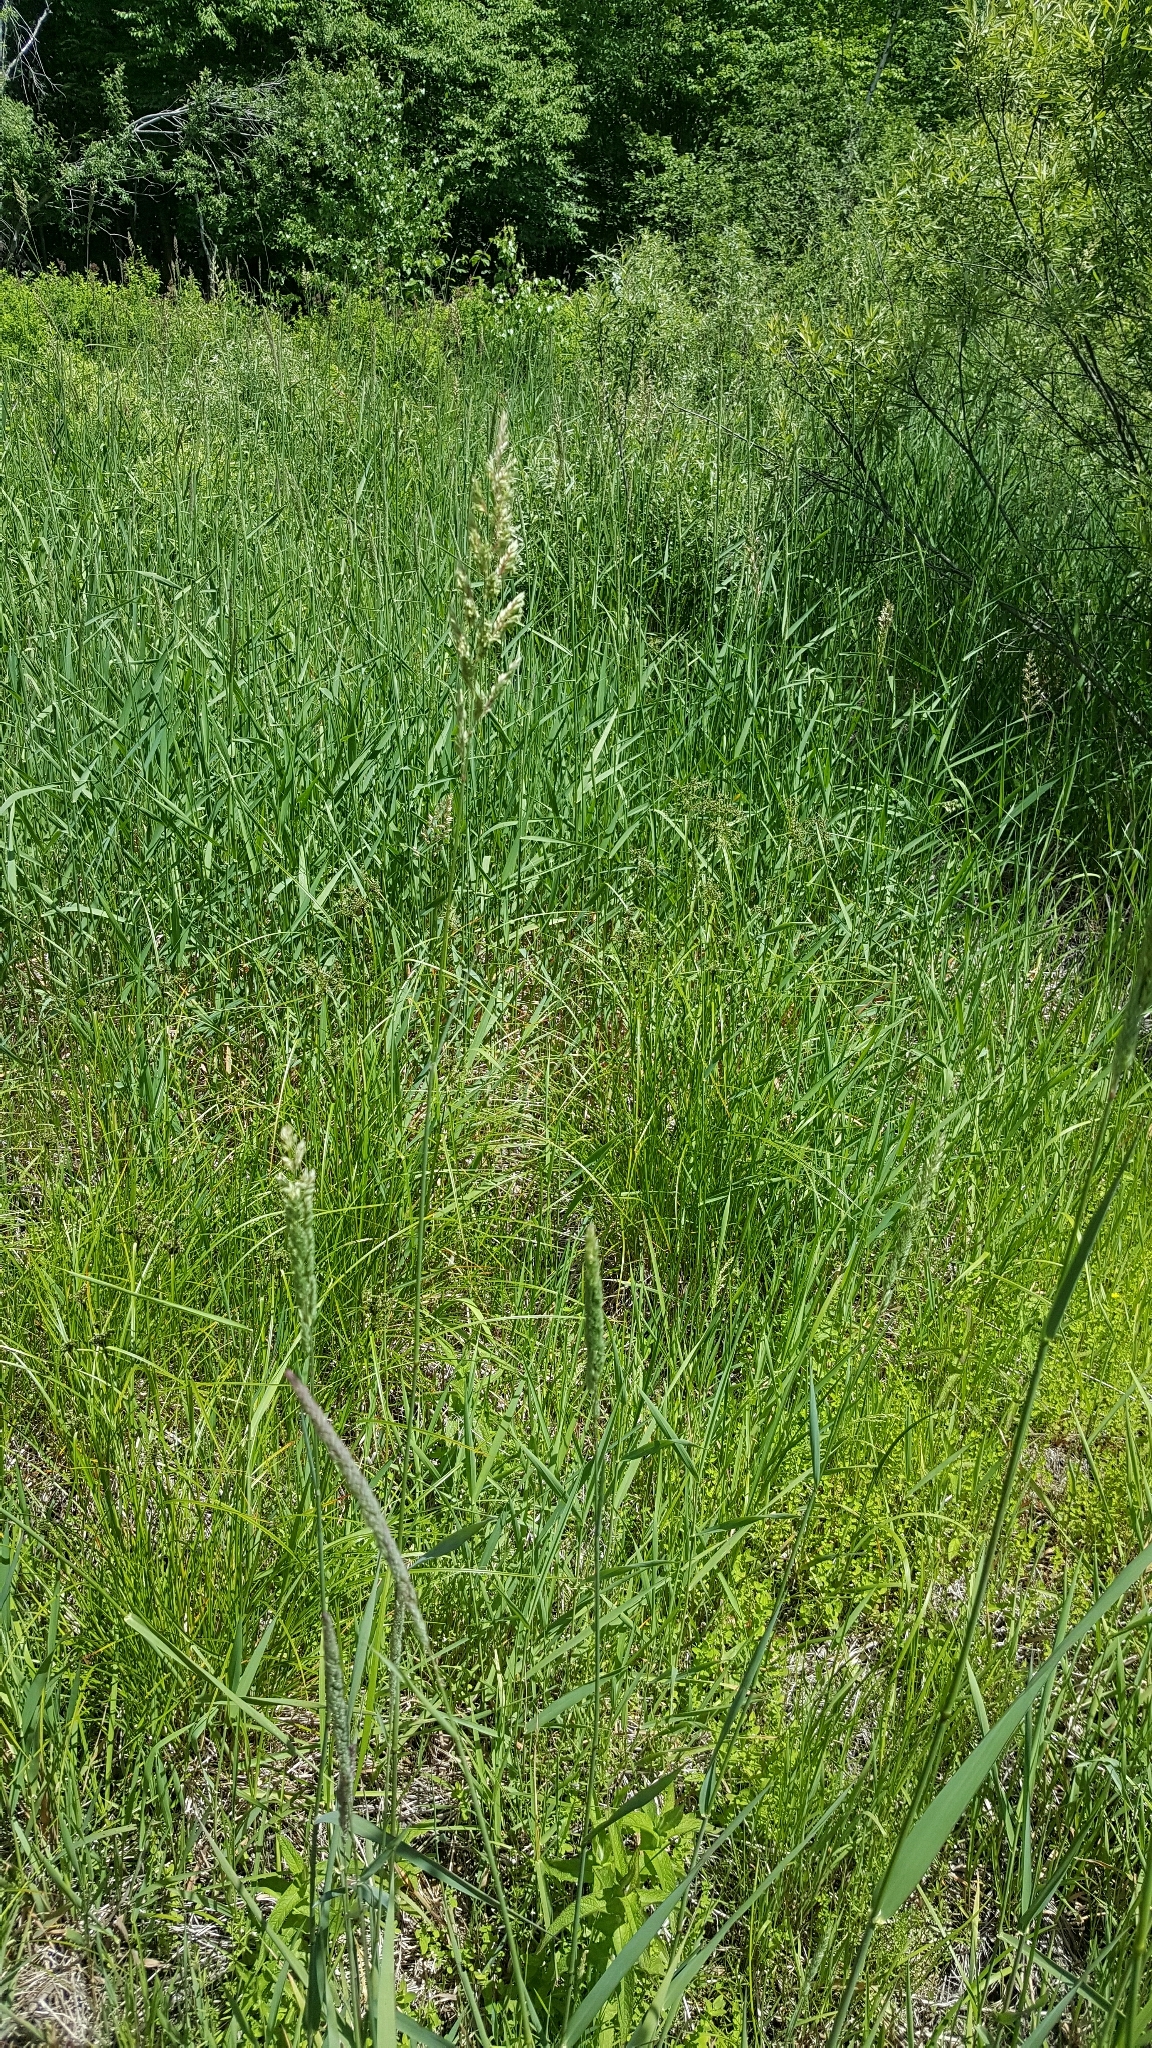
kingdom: Plantae
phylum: Tracheophyta
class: Liliopsida
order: Poales
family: Poaceae
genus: Phalaris
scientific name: Phalaris arundinacea
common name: Reed canary-grass
